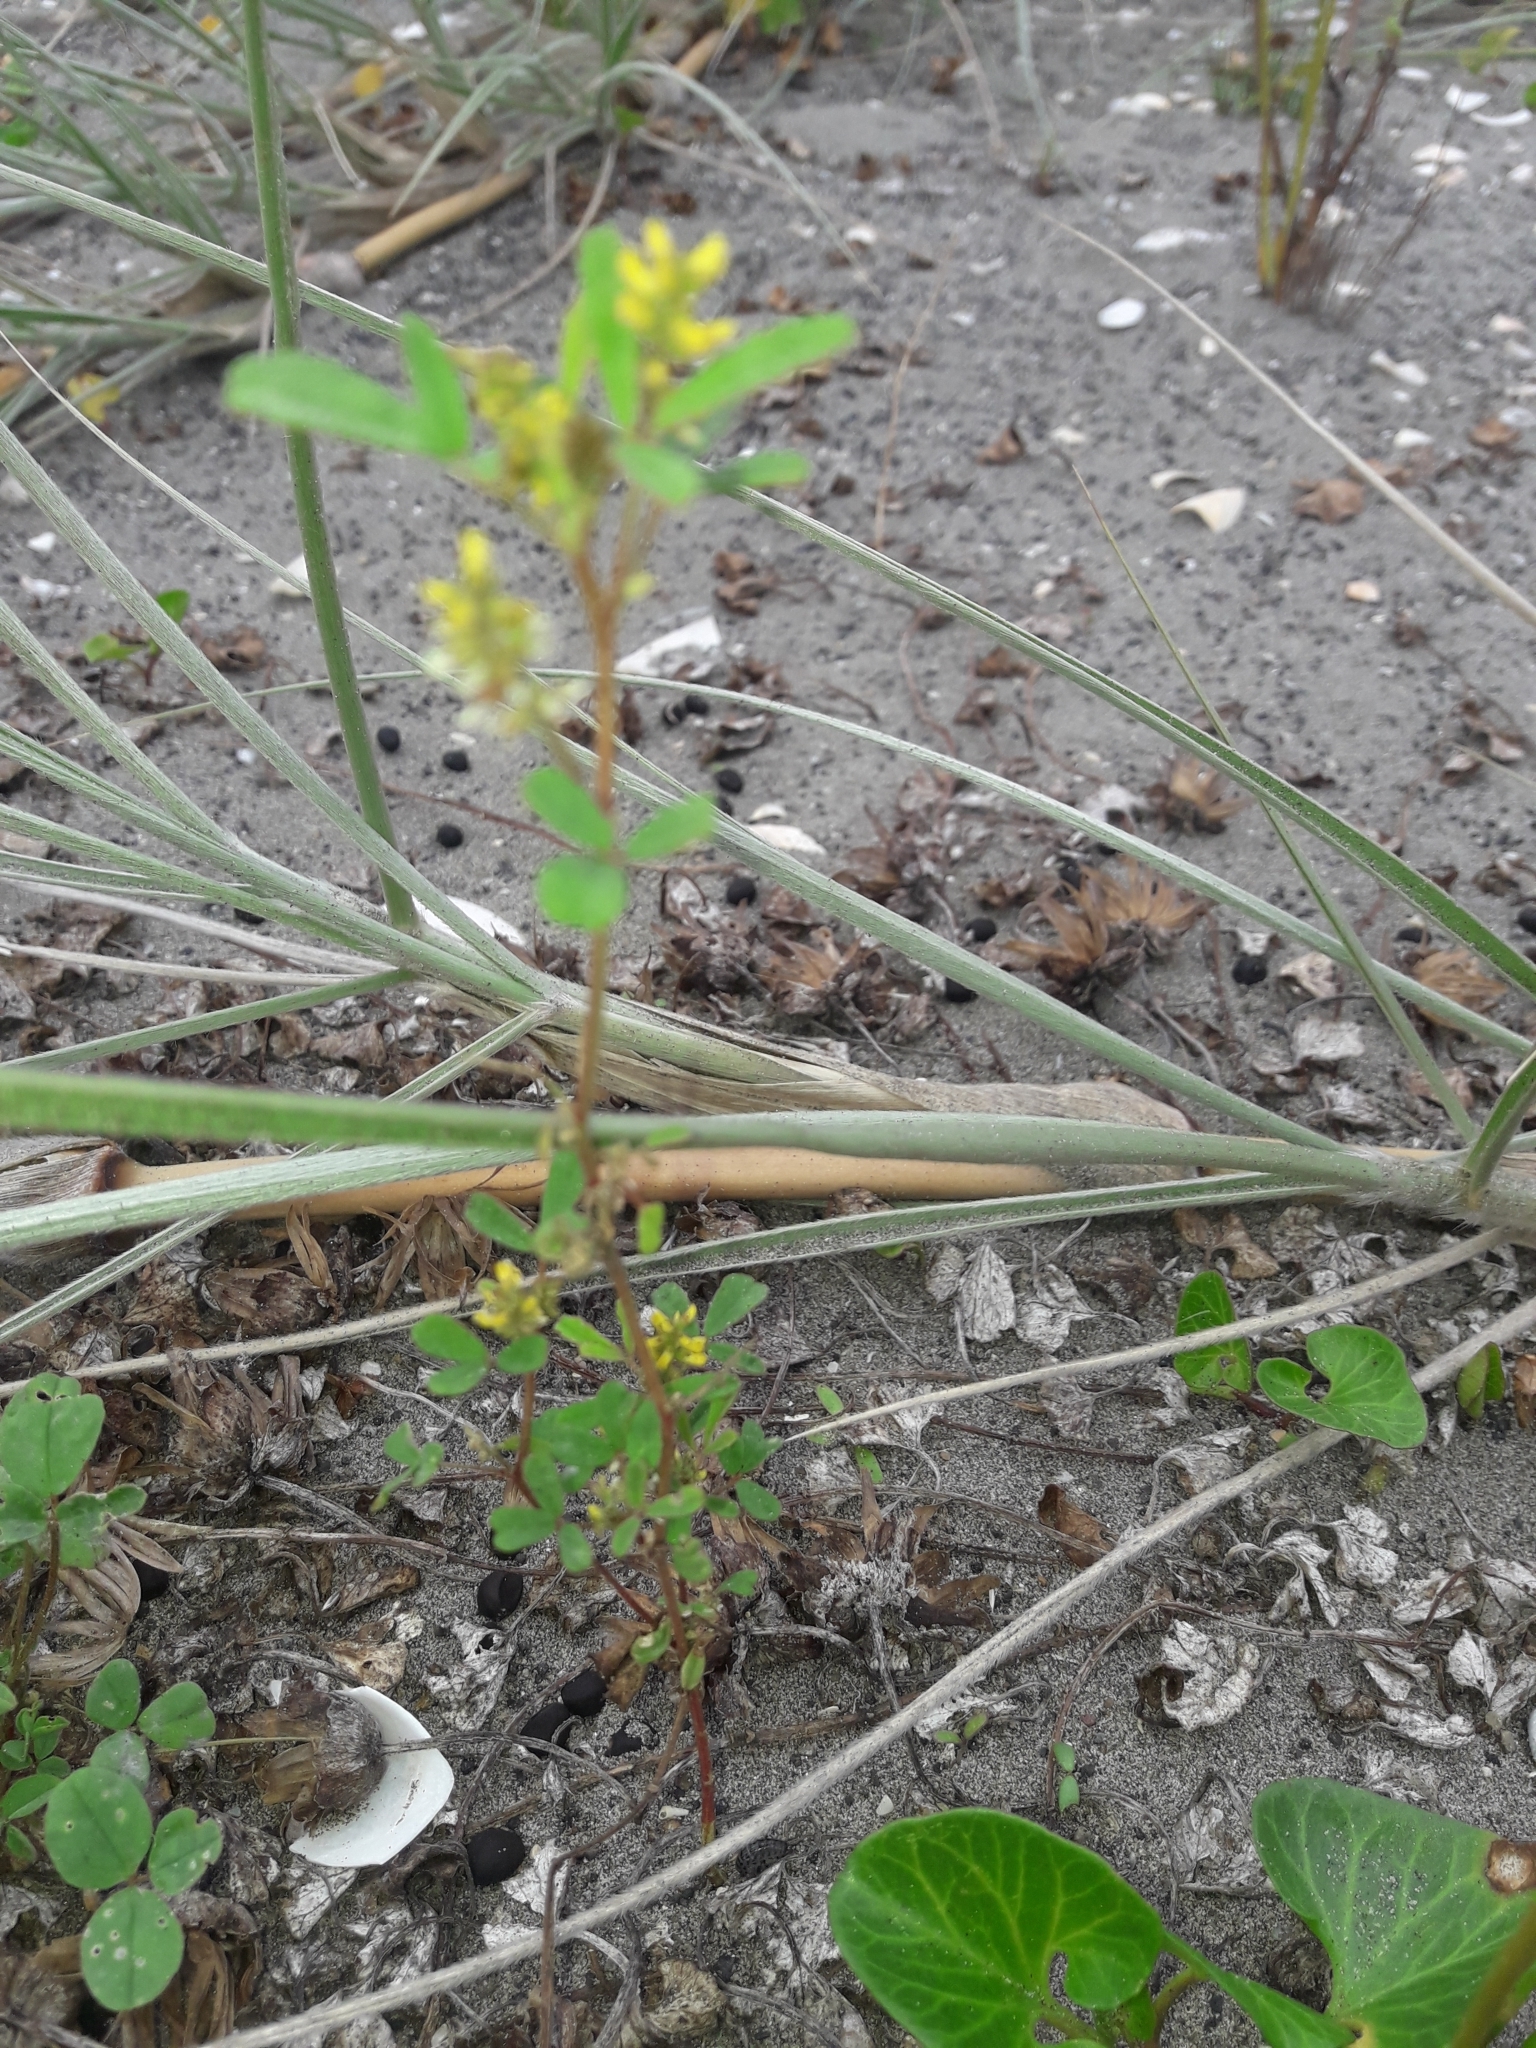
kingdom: Plantae
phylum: Tracheophyta
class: Magnoliopsida
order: Fabales
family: Fabaceae
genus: Melilotus
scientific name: Melilotus indicus
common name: Small melilot
